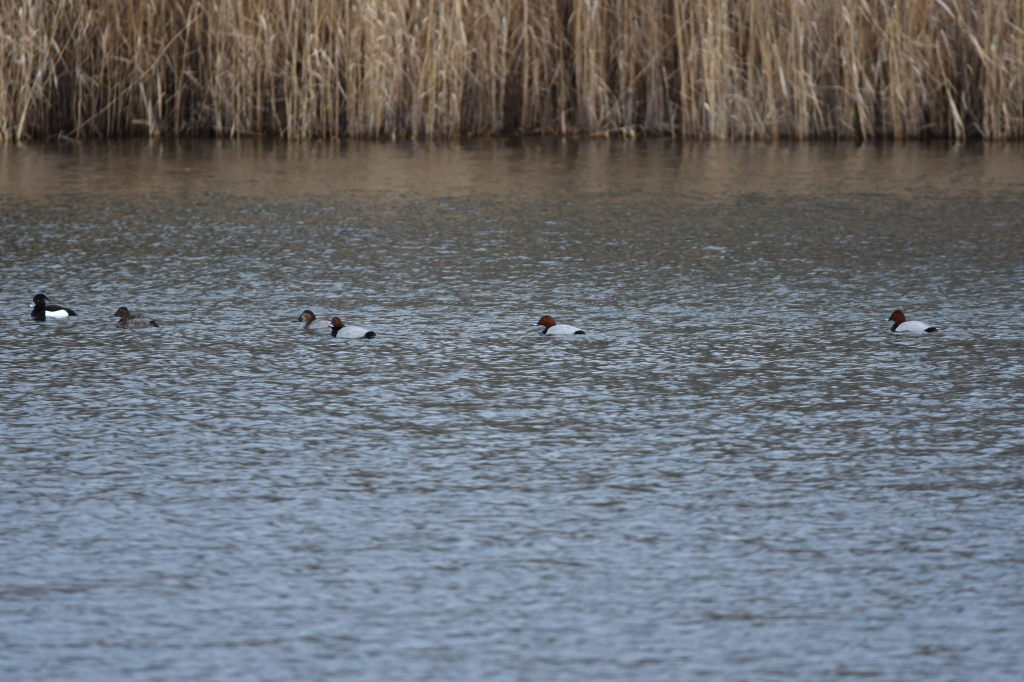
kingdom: Animalia
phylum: Chordata
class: Aves
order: Anseriformes
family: Anatidae
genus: Aythya
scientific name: Aythya ferina
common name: Common pochard
